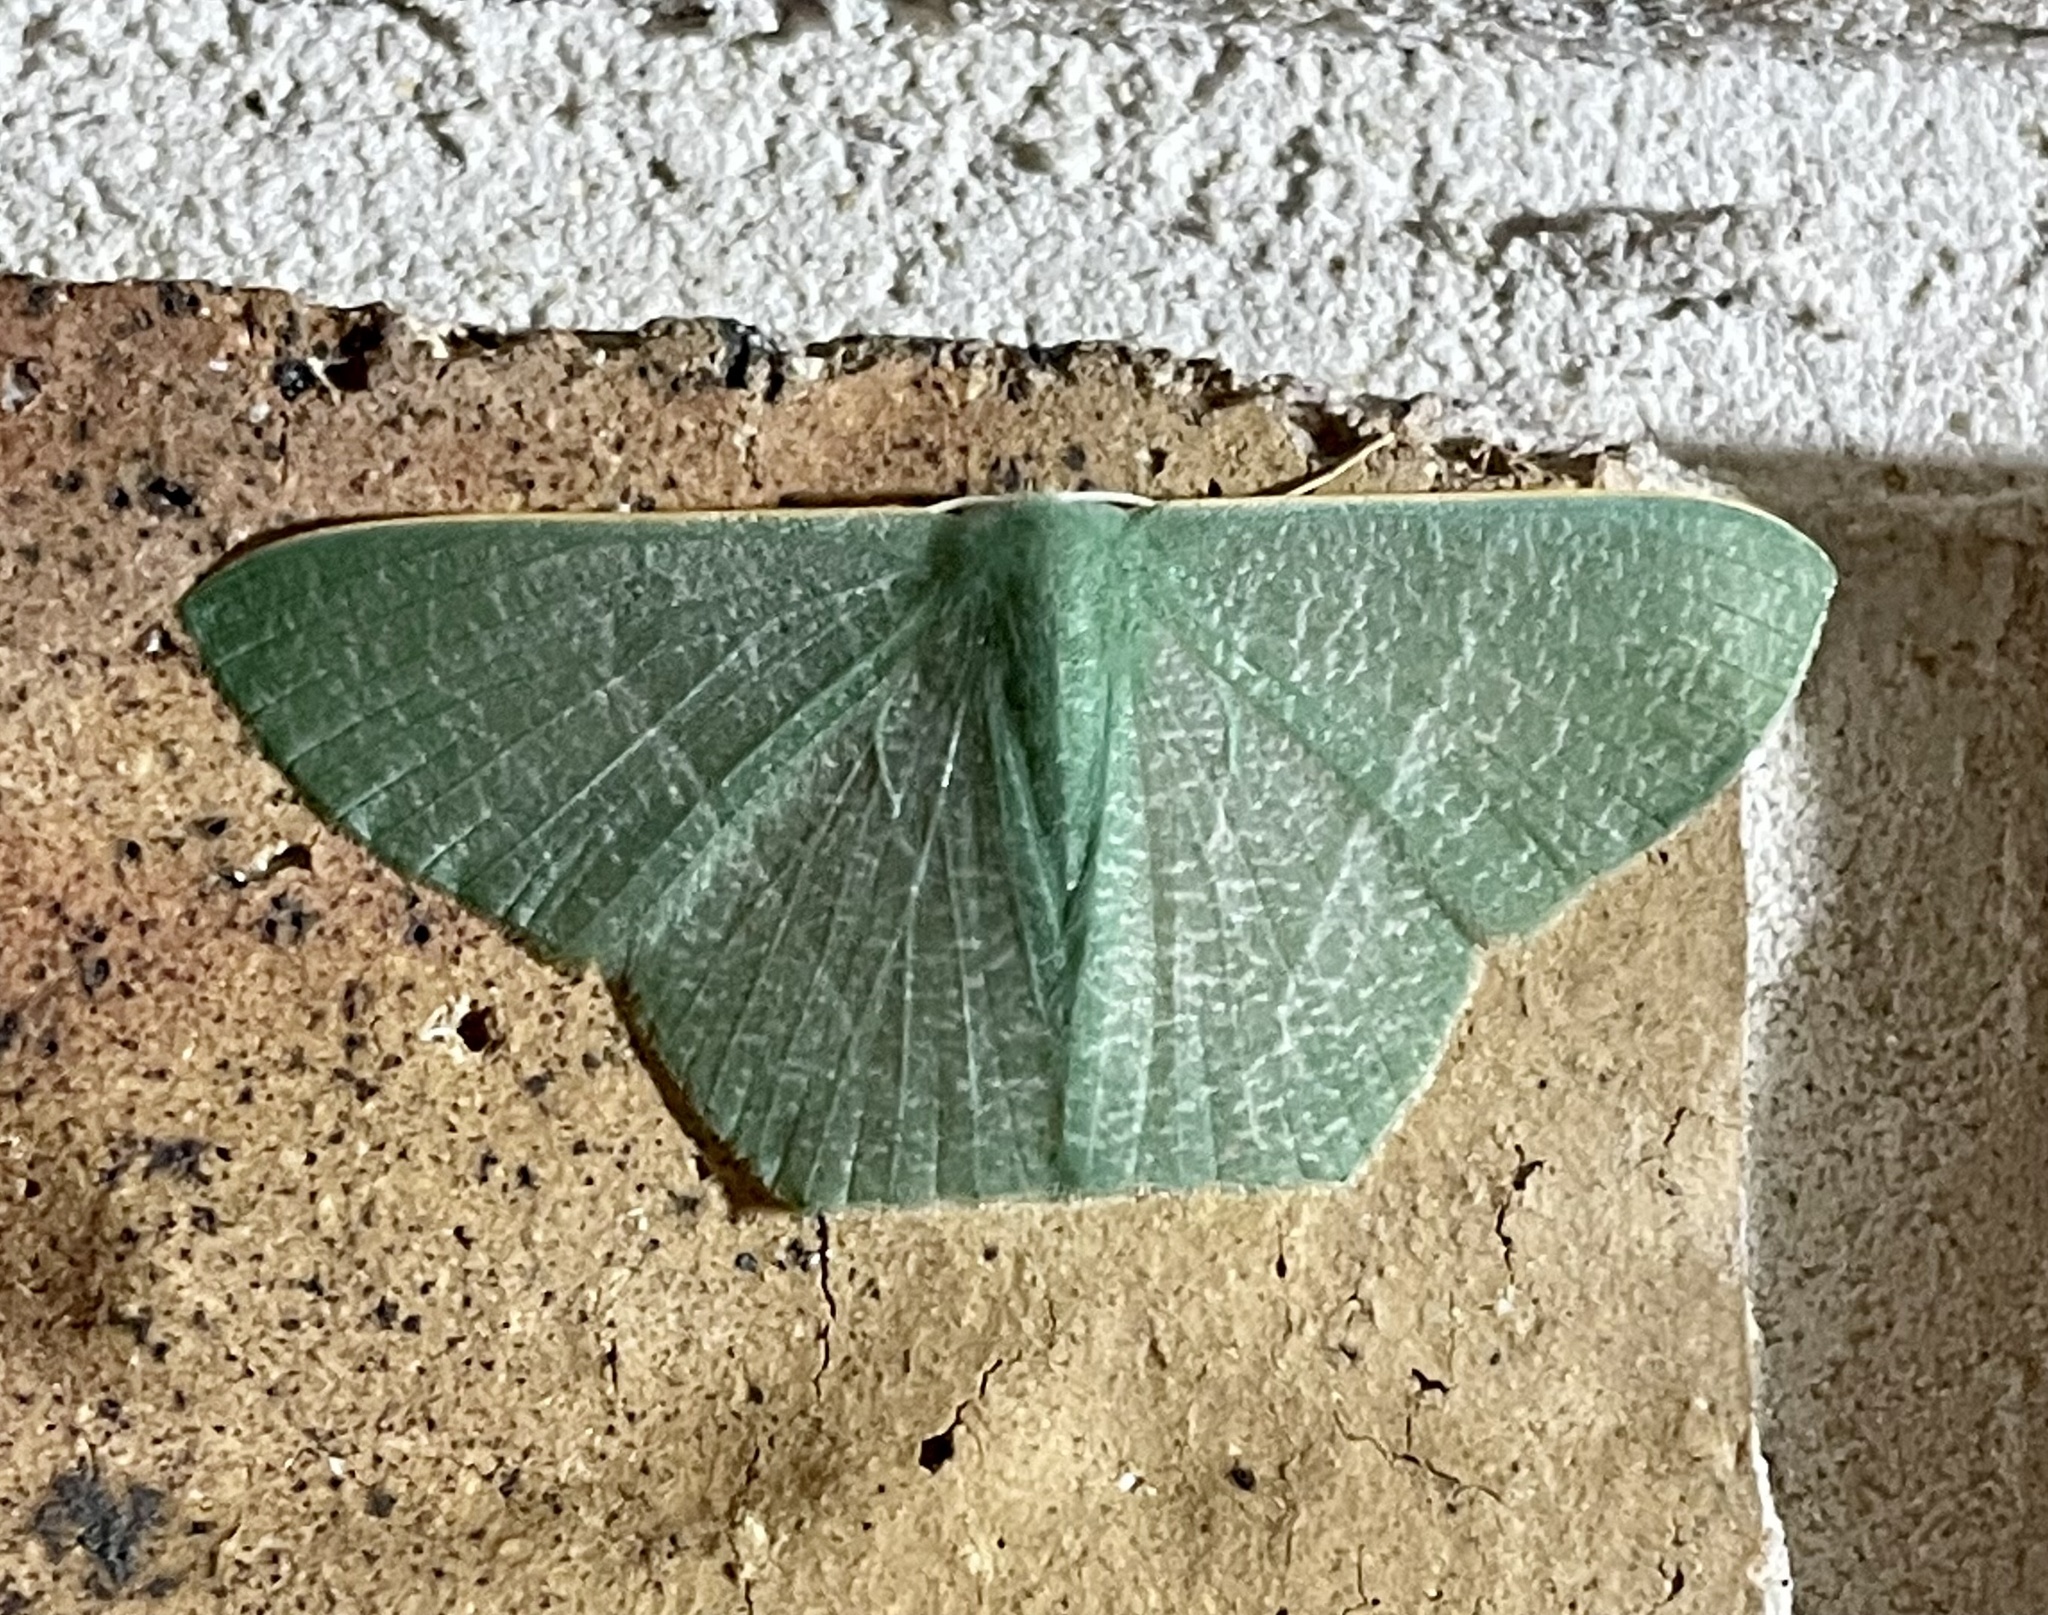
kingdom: Animalia
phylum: Arthropoda
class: Insecta
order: Lepidoptera
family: Geometridae
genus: Thalassodes
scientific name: Thalassodes pilaria
